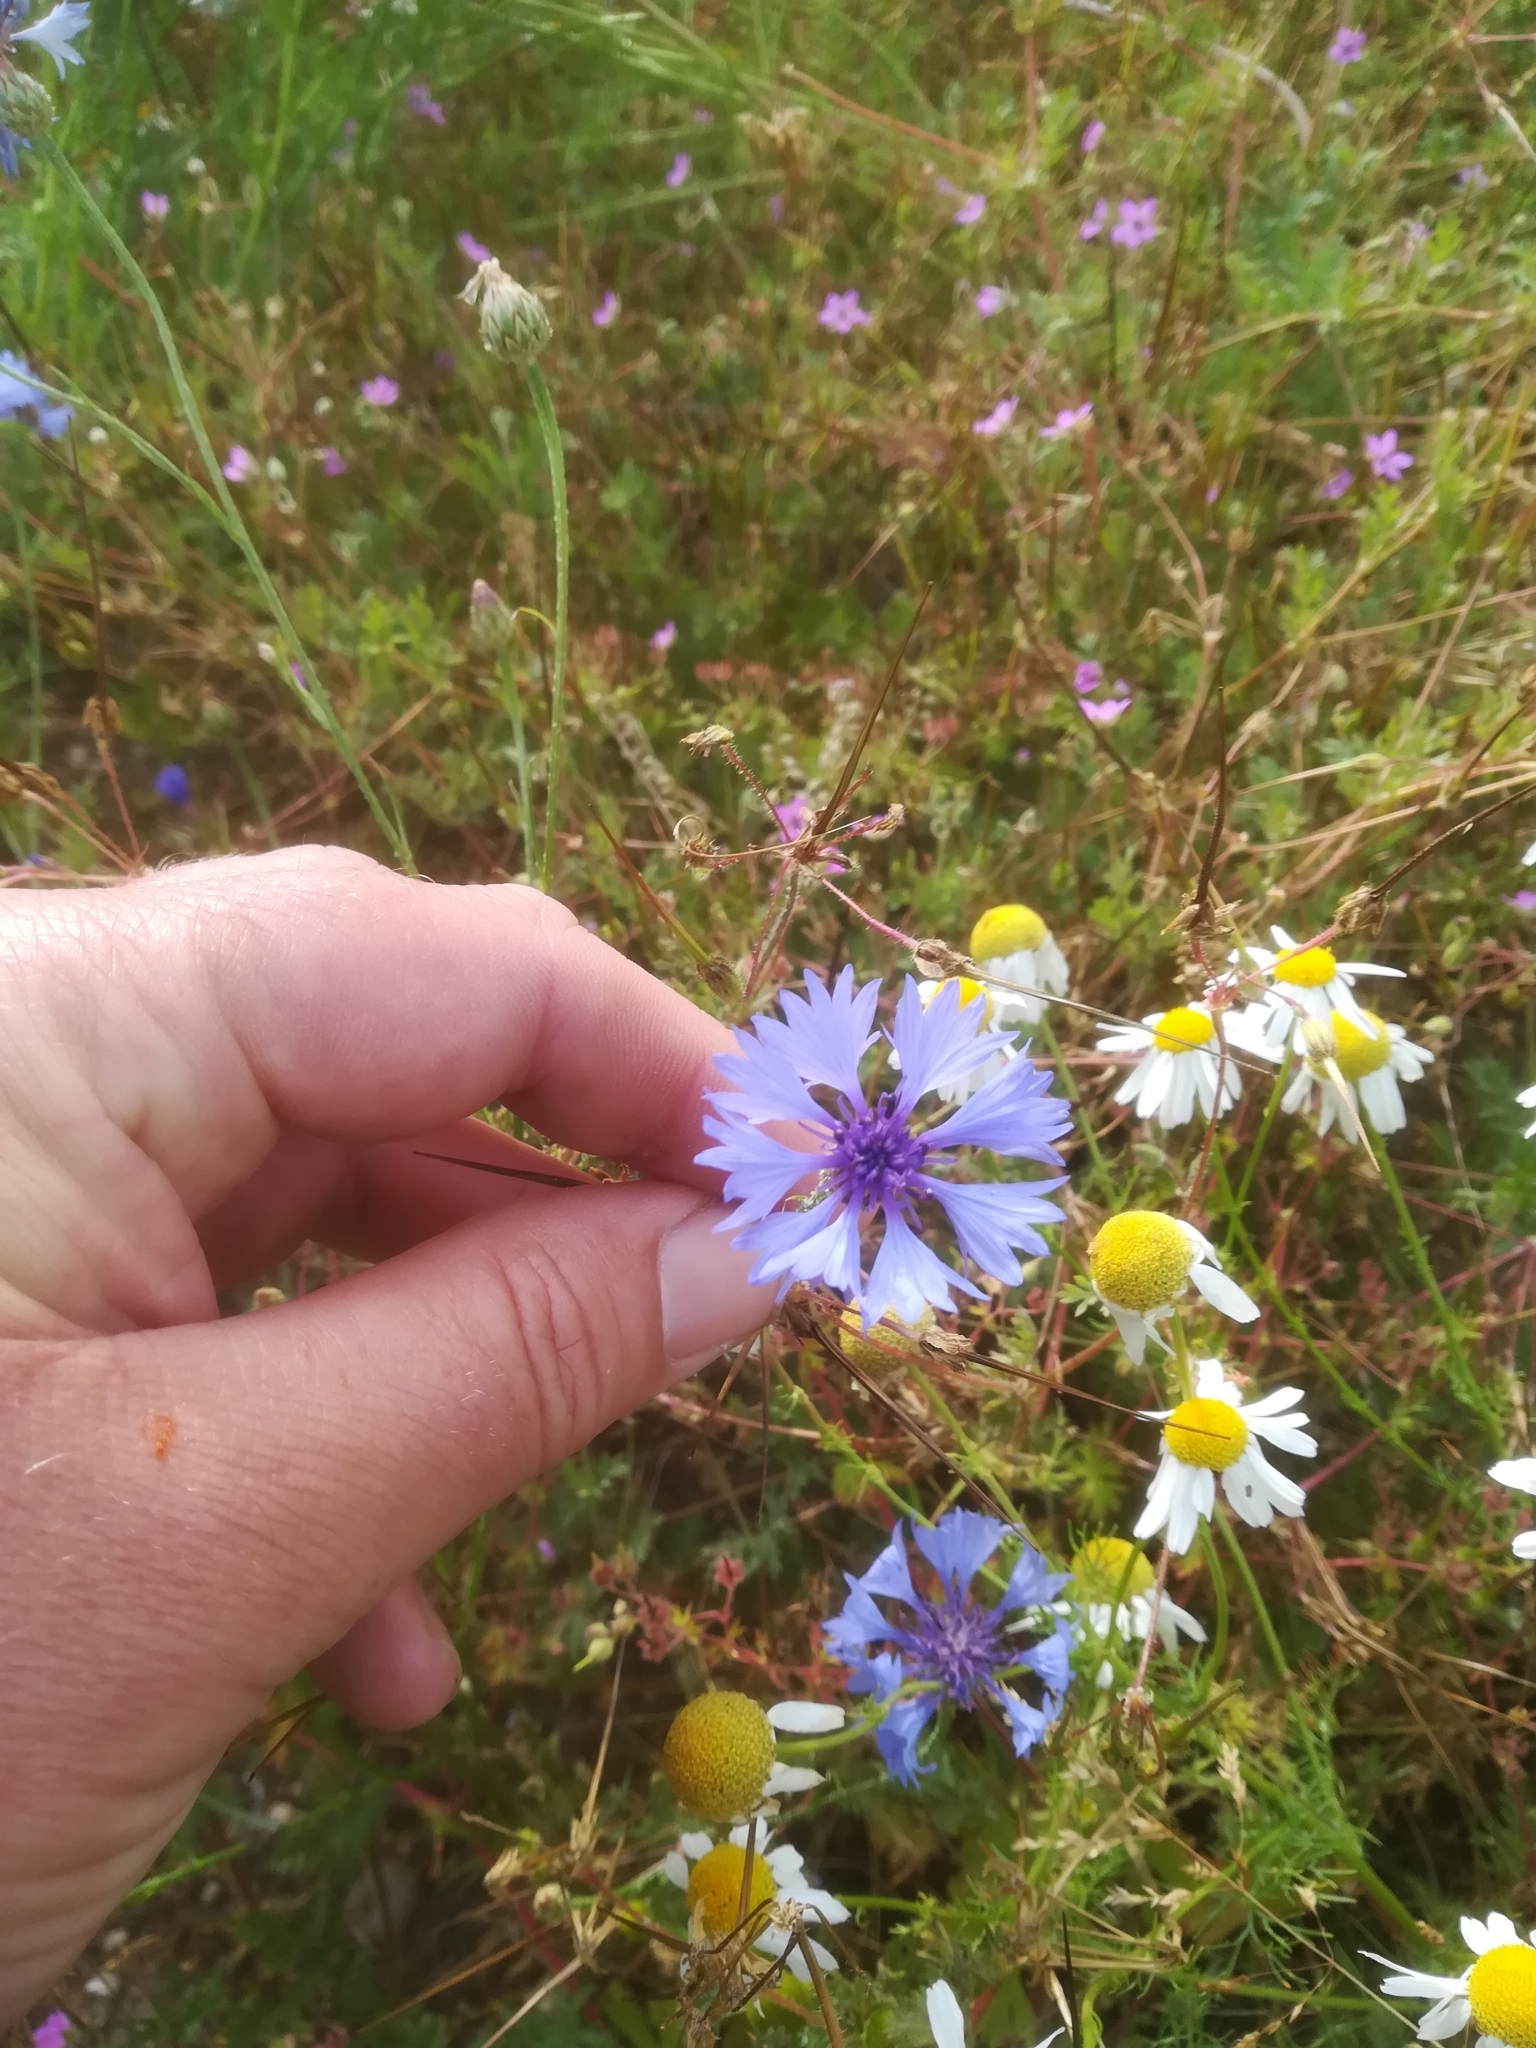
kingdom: Plantae
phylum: Tracheophyta
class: Magnoliopsida
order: Asterales
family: Asteraceae
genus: Centaurea
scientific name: Centaurea cyanus
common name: Cornflower
